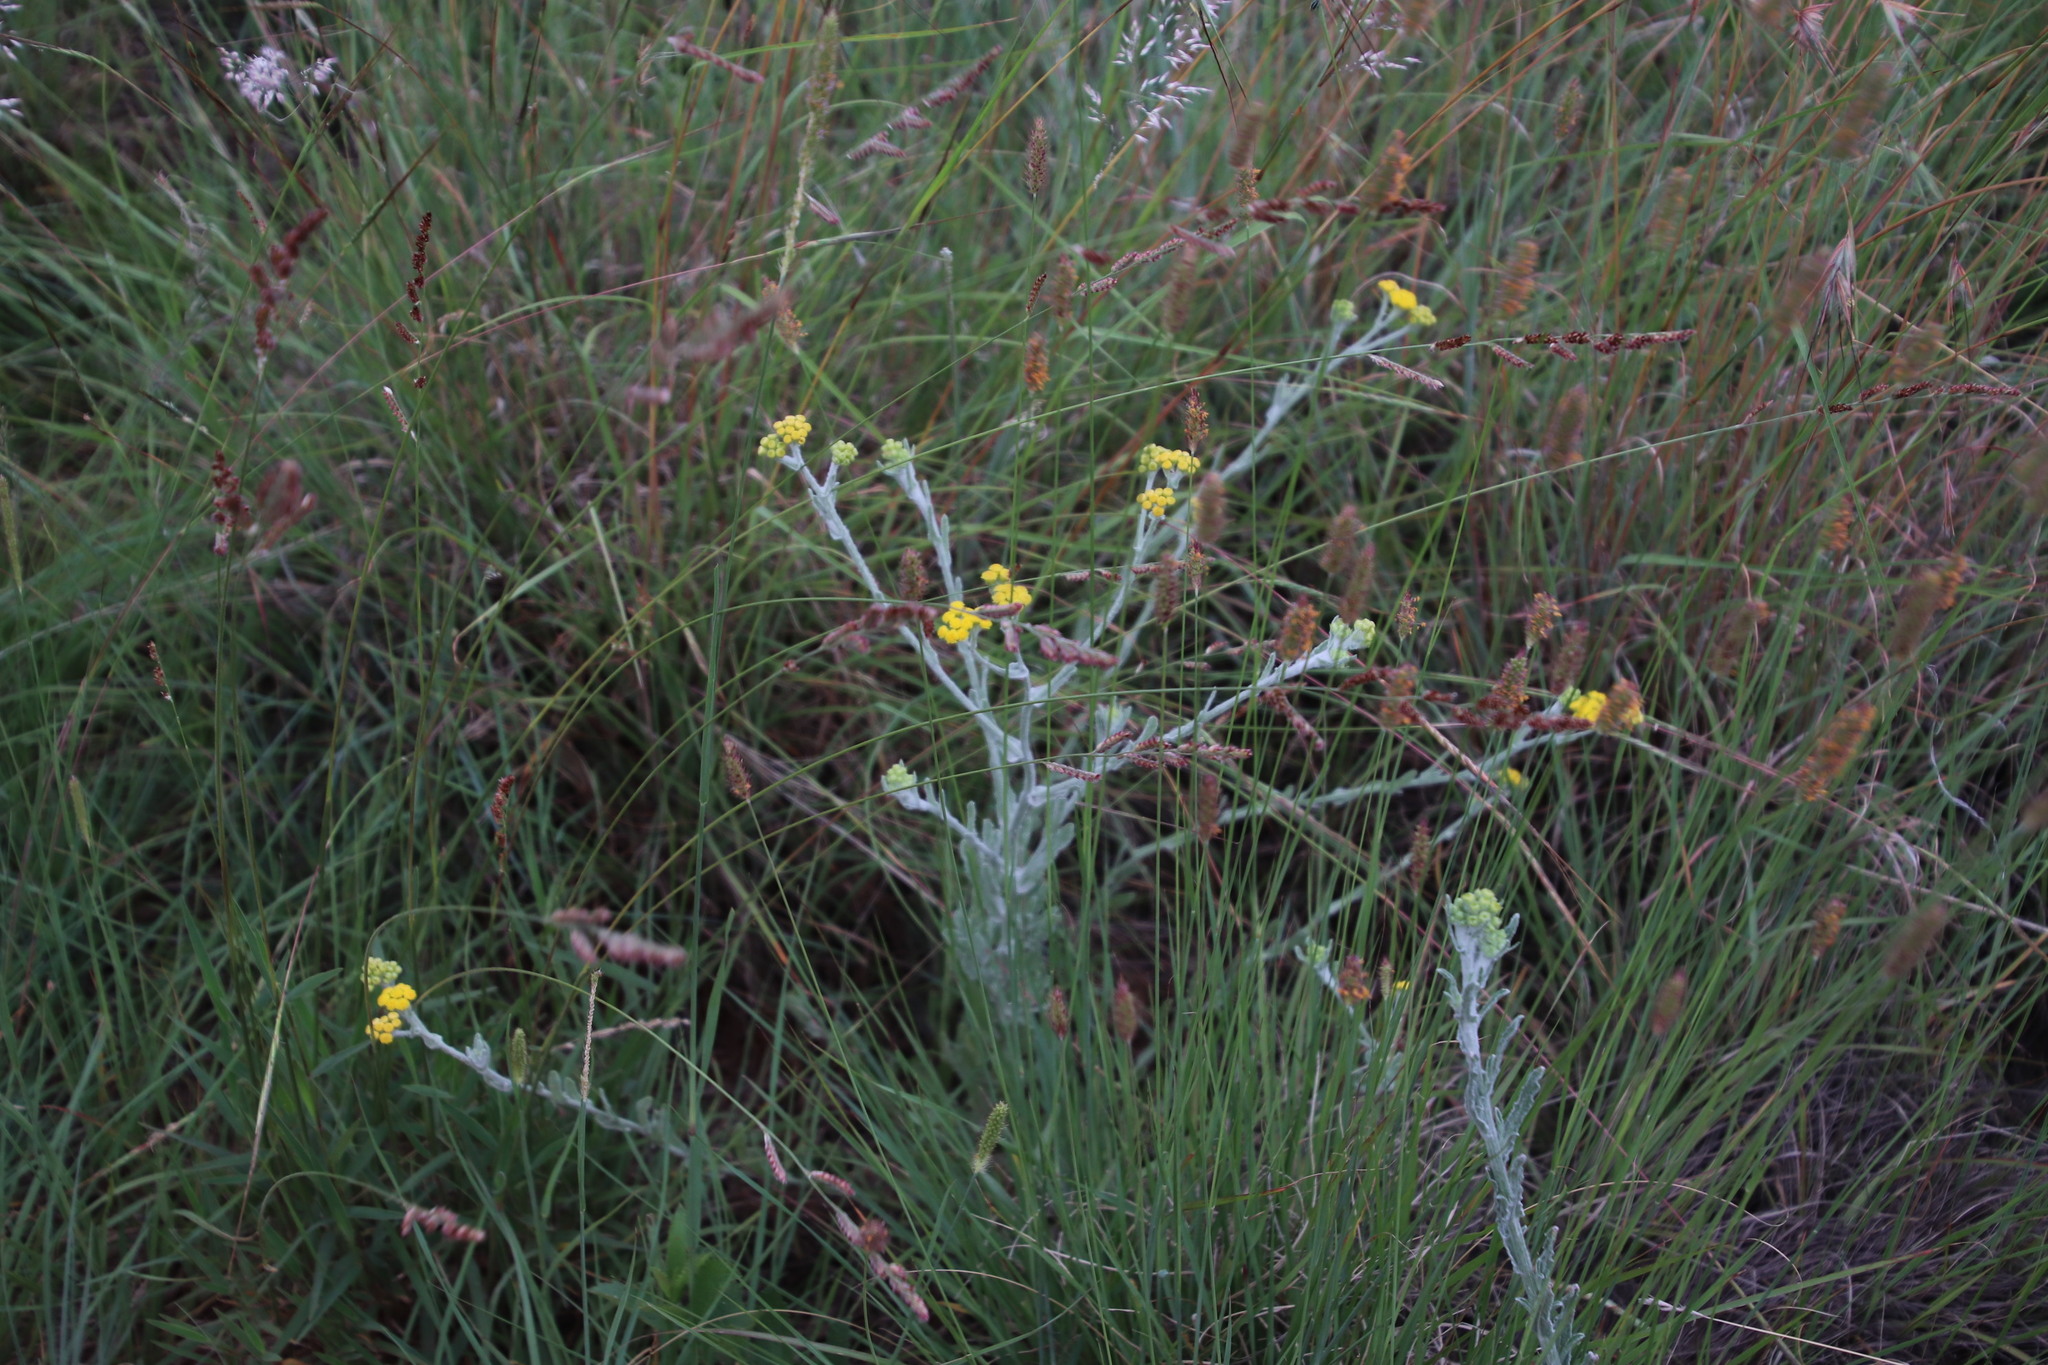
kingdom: Plantae
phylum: Tracheophyta
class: Magnoliopsida
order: Asterales
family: Asteraceae
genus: Nidorella
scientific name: Nidorella hottentotica
